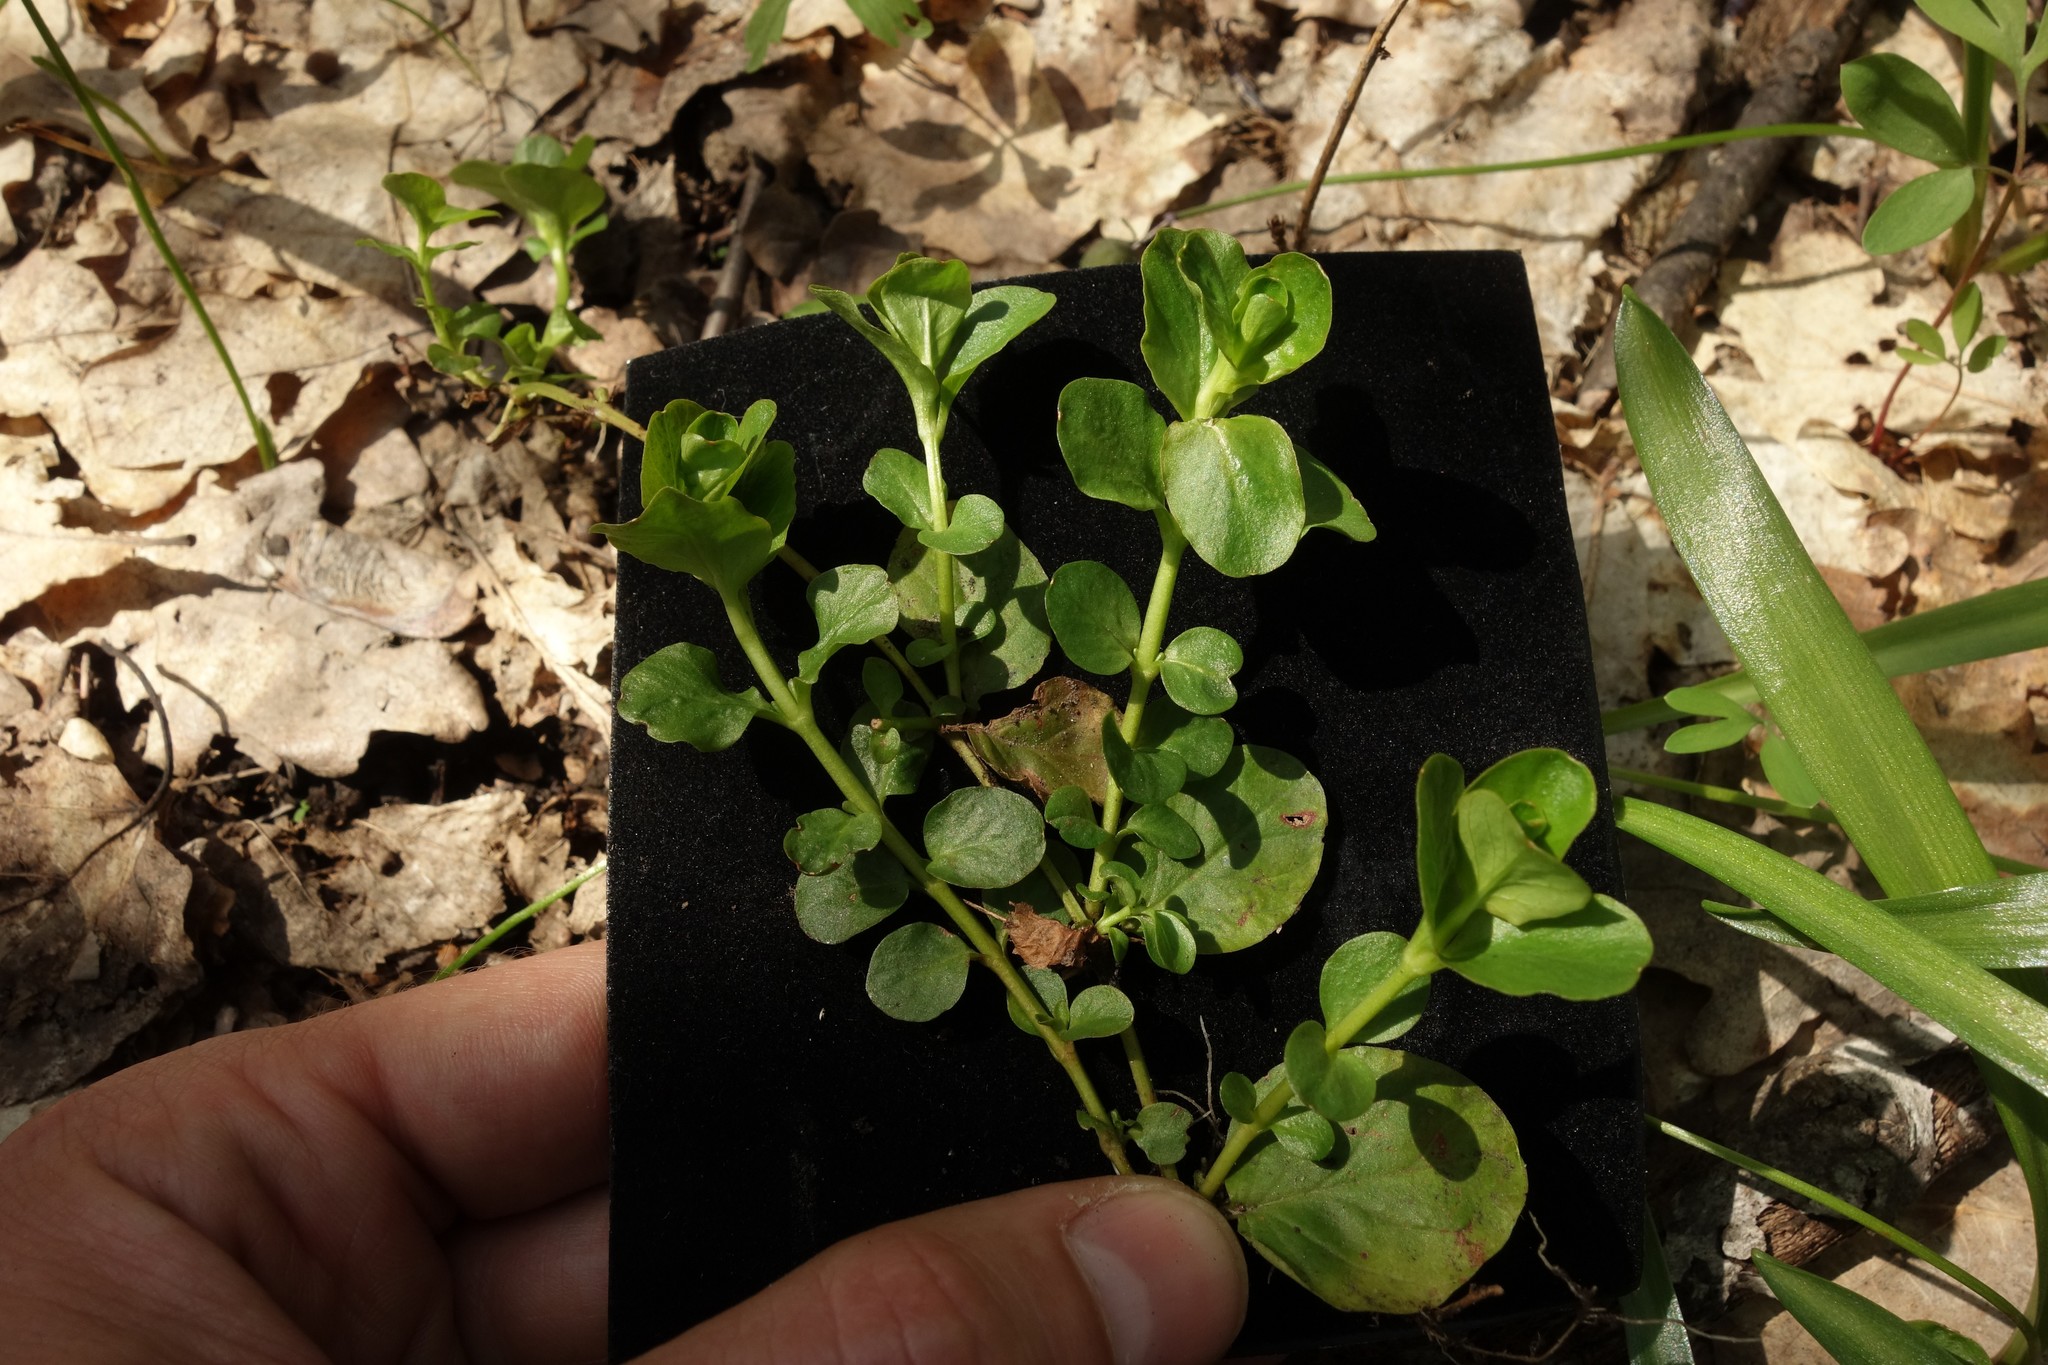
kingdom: Plantae
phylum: Tracheophyta
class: Magnoliopsida
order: Ericales
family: Primulaceae
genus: Lysimachia
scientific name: Lysimachia nummularia
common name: Moneywort
